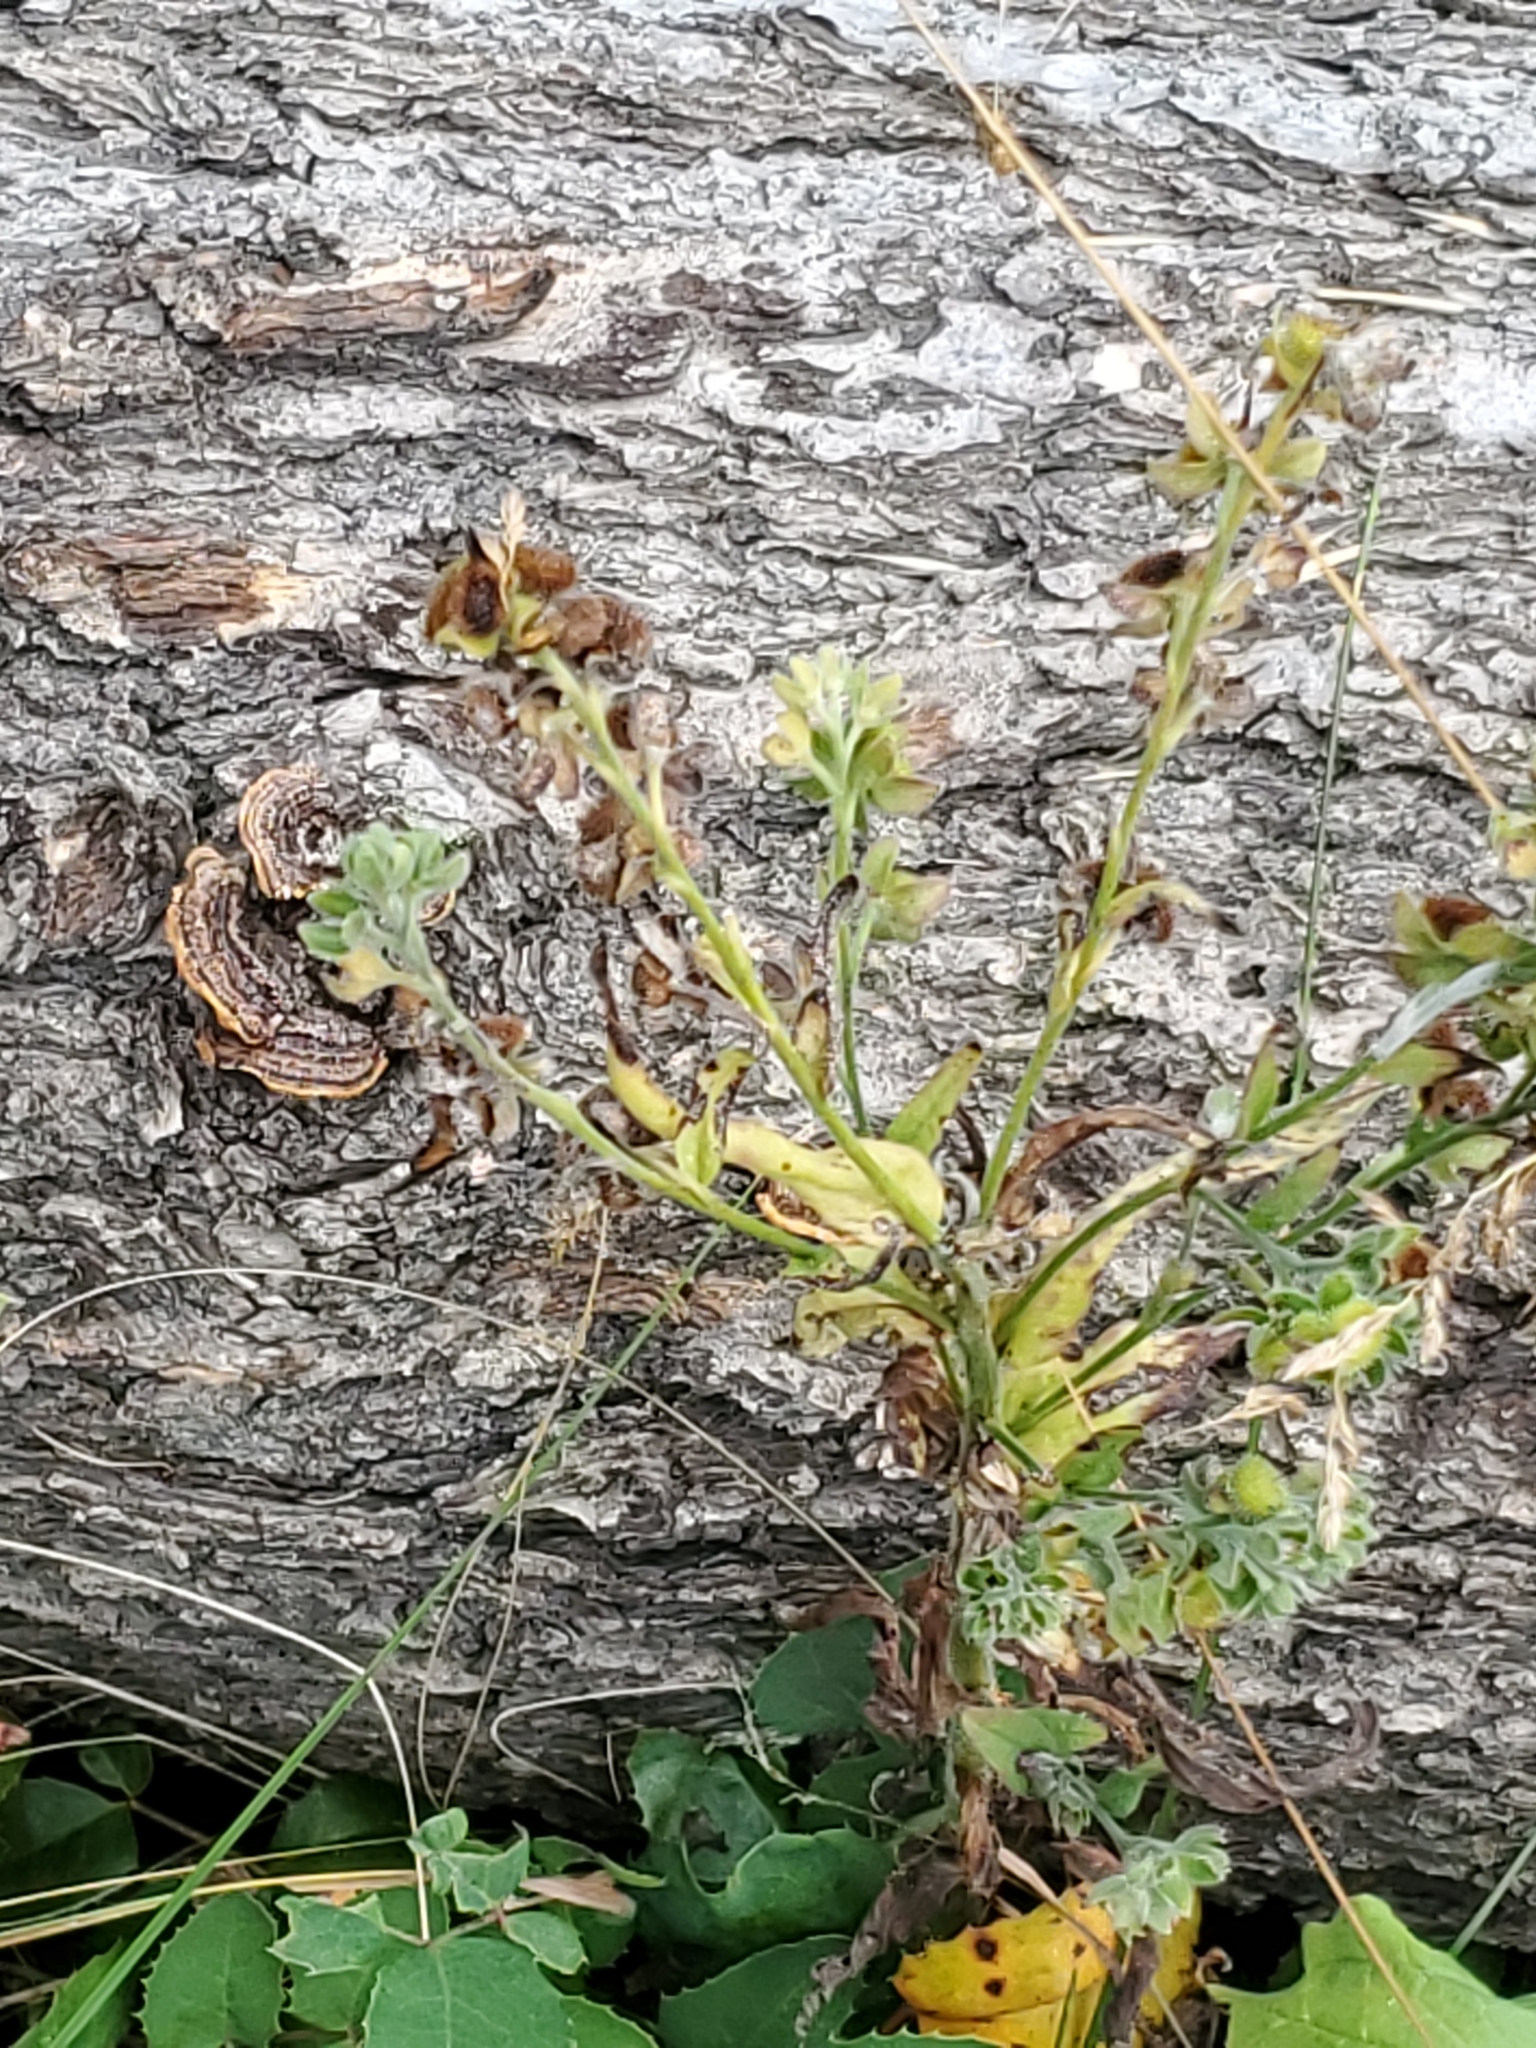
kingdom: Plantae
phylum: Tracheophyta
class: Magnoliopsida
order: Boraginales
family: Boraginaceae
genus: Cynoglossum
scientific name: Cynoglossum officinale
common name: Hound's-tongue
